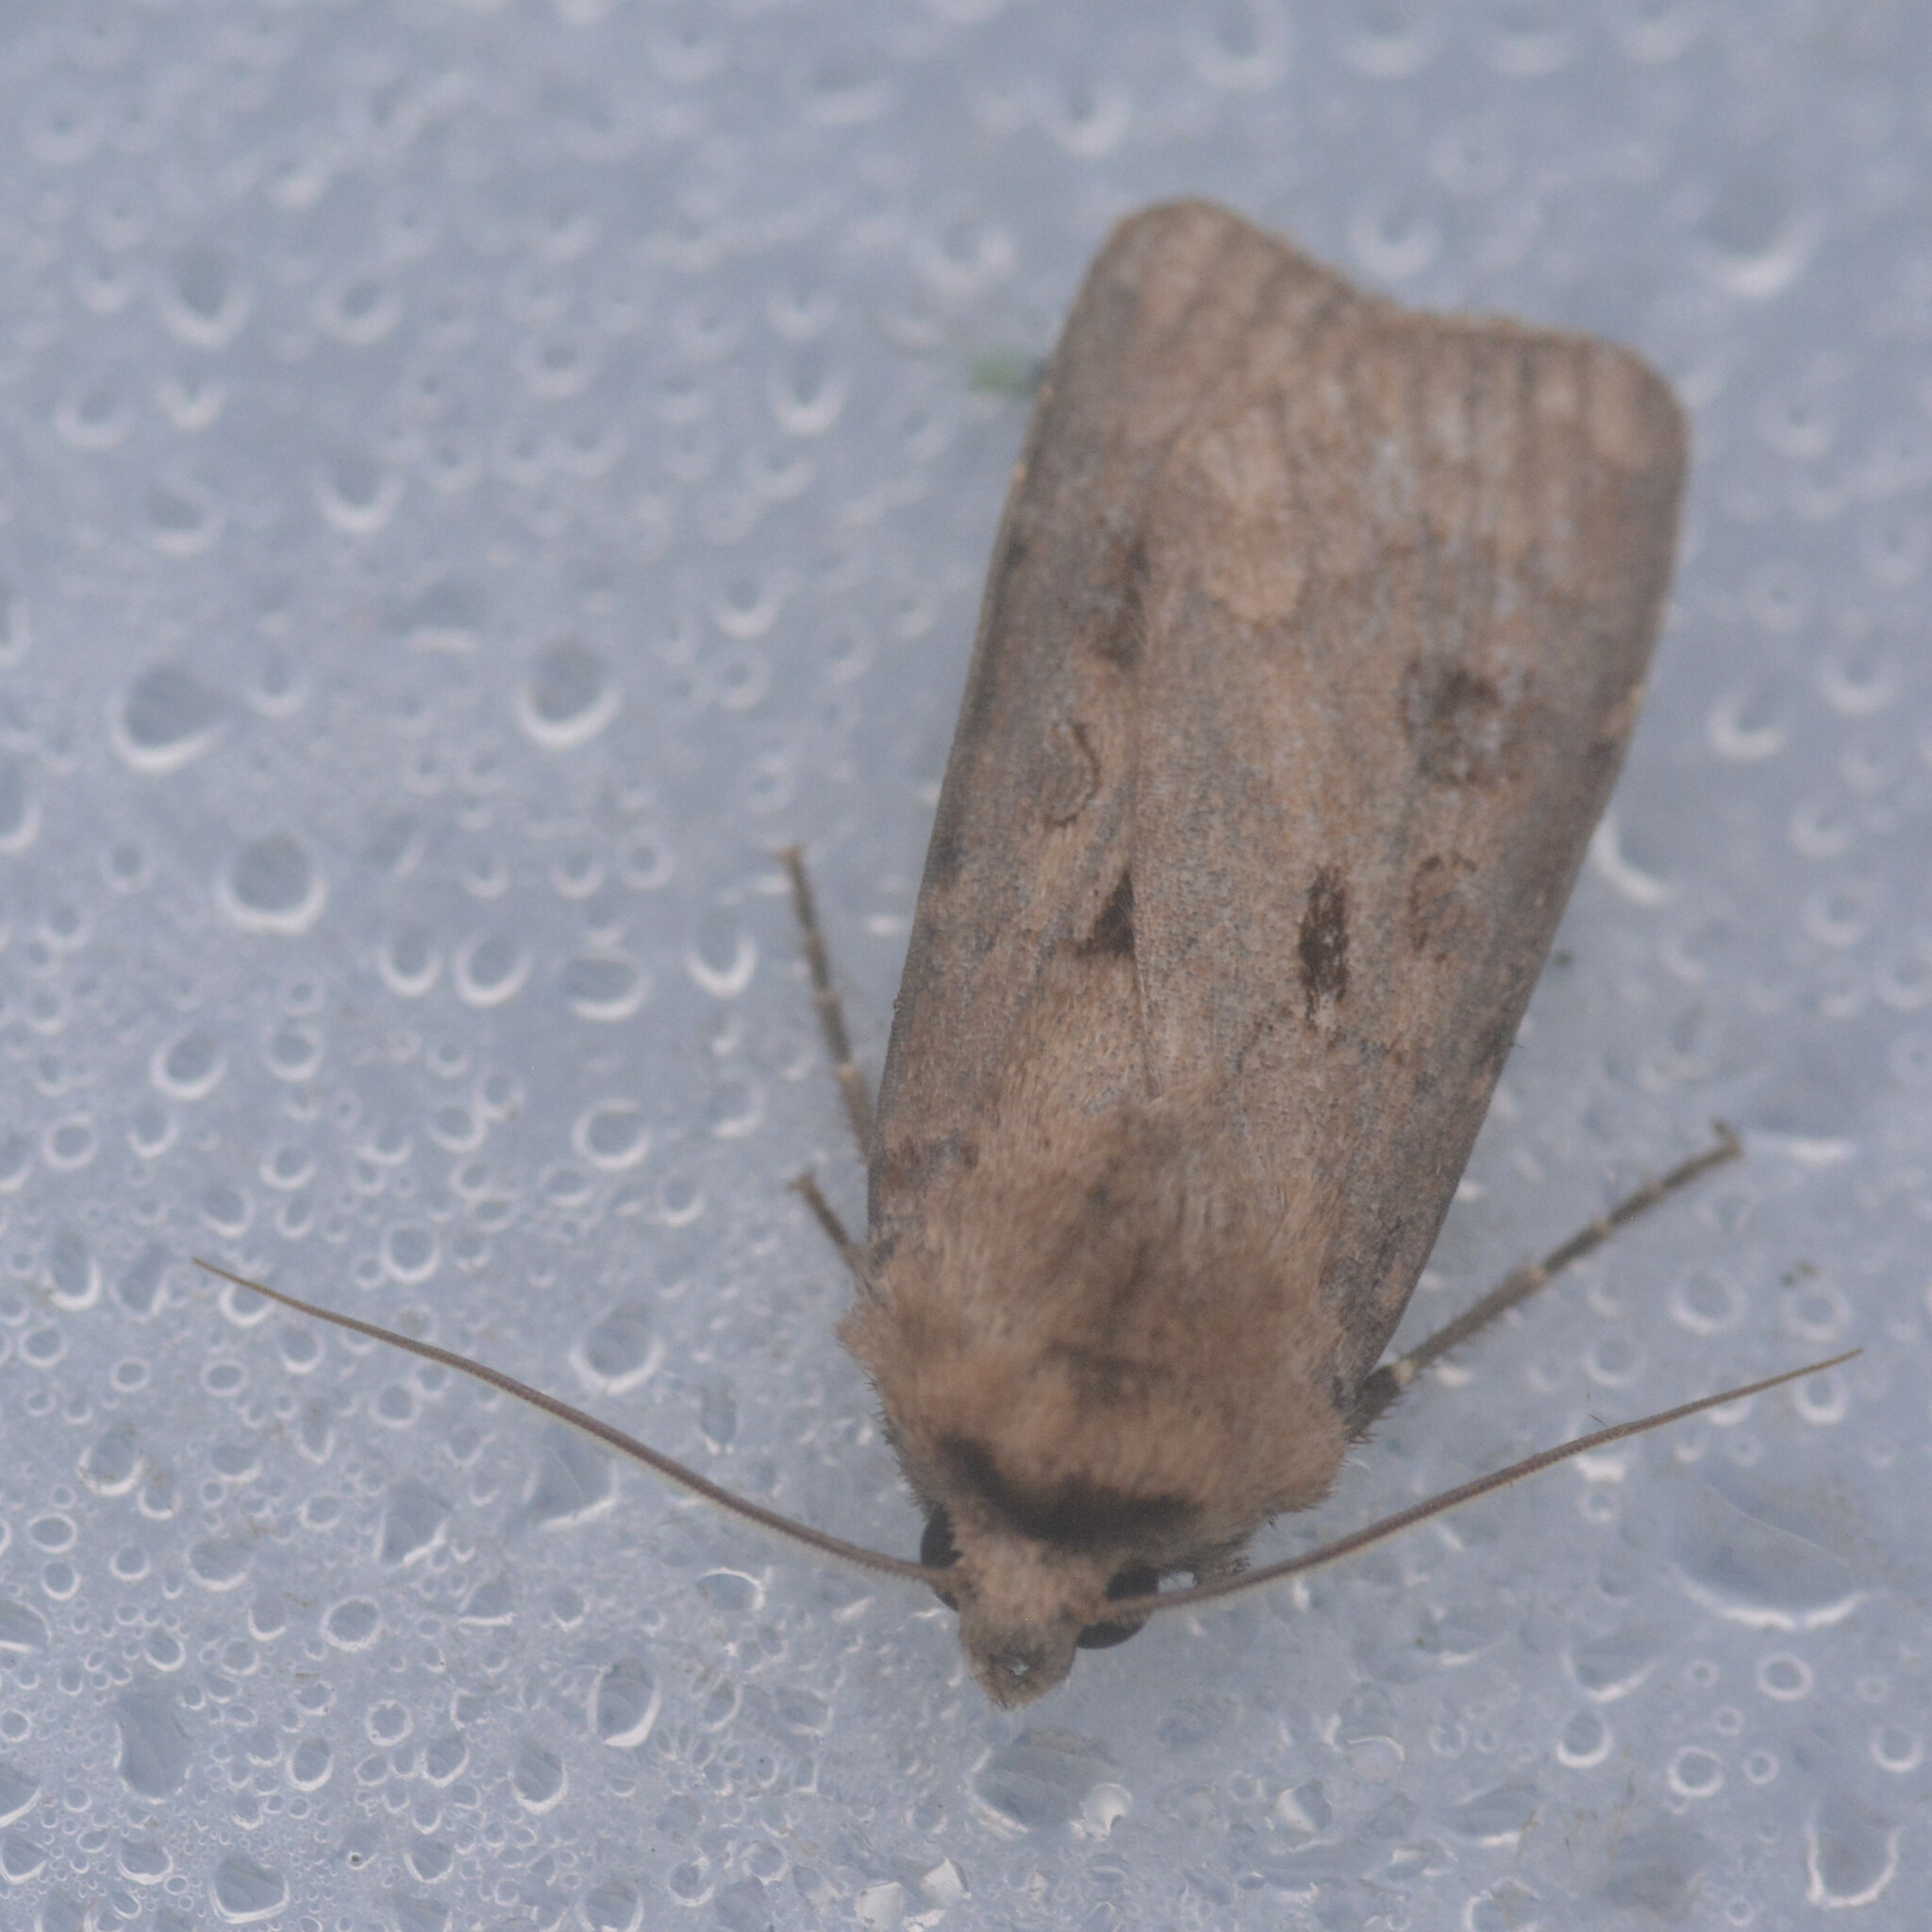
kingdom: Animalia
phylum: Arthropoda
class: Insecta
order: Lepidoptera
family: Noctuidae
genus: Agrotis
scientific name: Agrotis exclamationis
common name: Heart and dart
